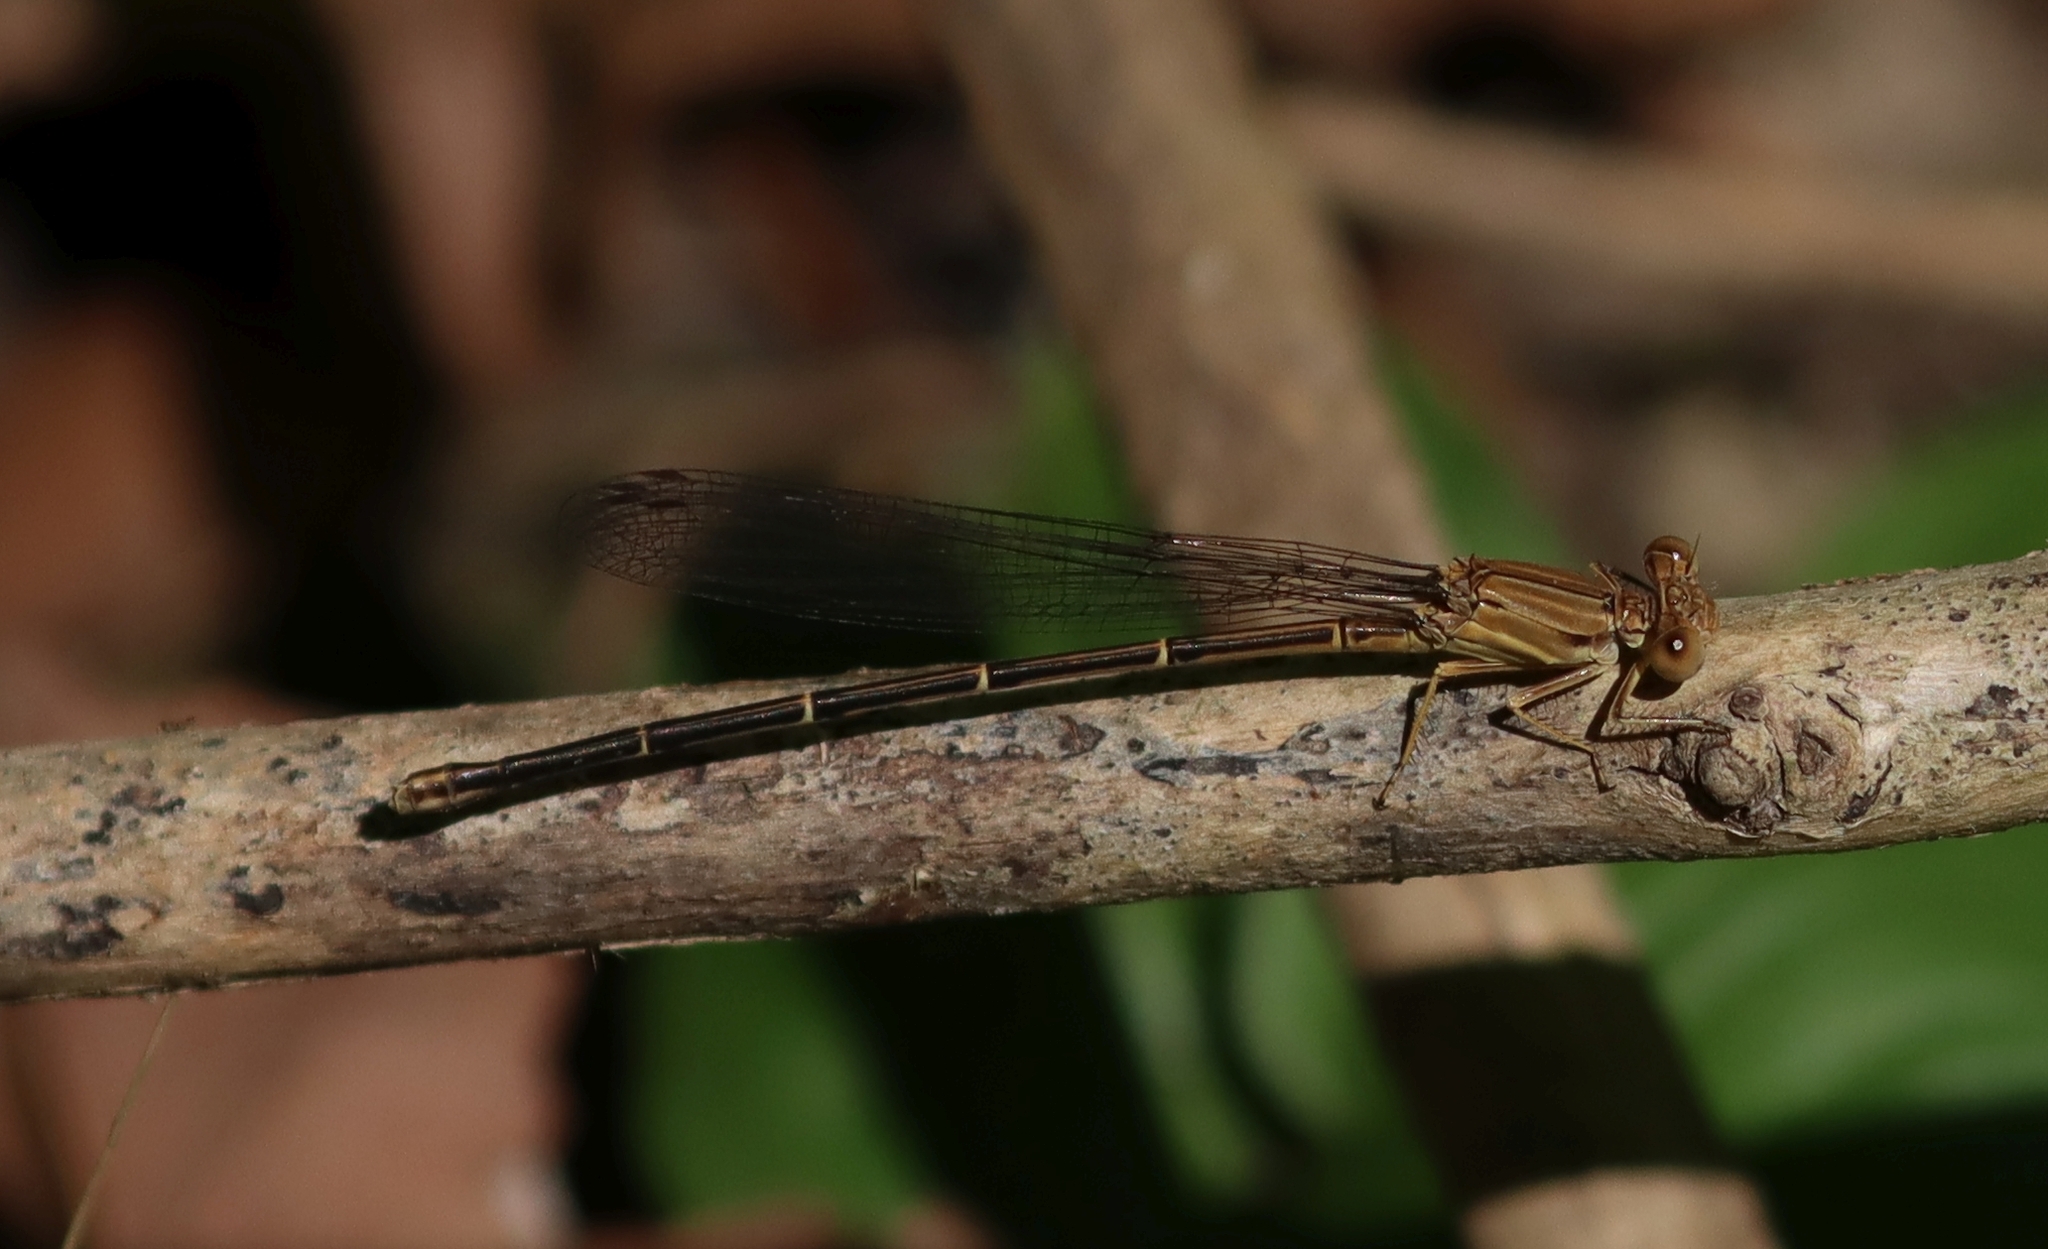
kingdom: Animalia
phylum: Arthropoda
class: Insecta
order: Odonata
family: Coenagrionidae
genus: Argia
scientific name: Argia apicalis
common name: Blue-fronted dancer
